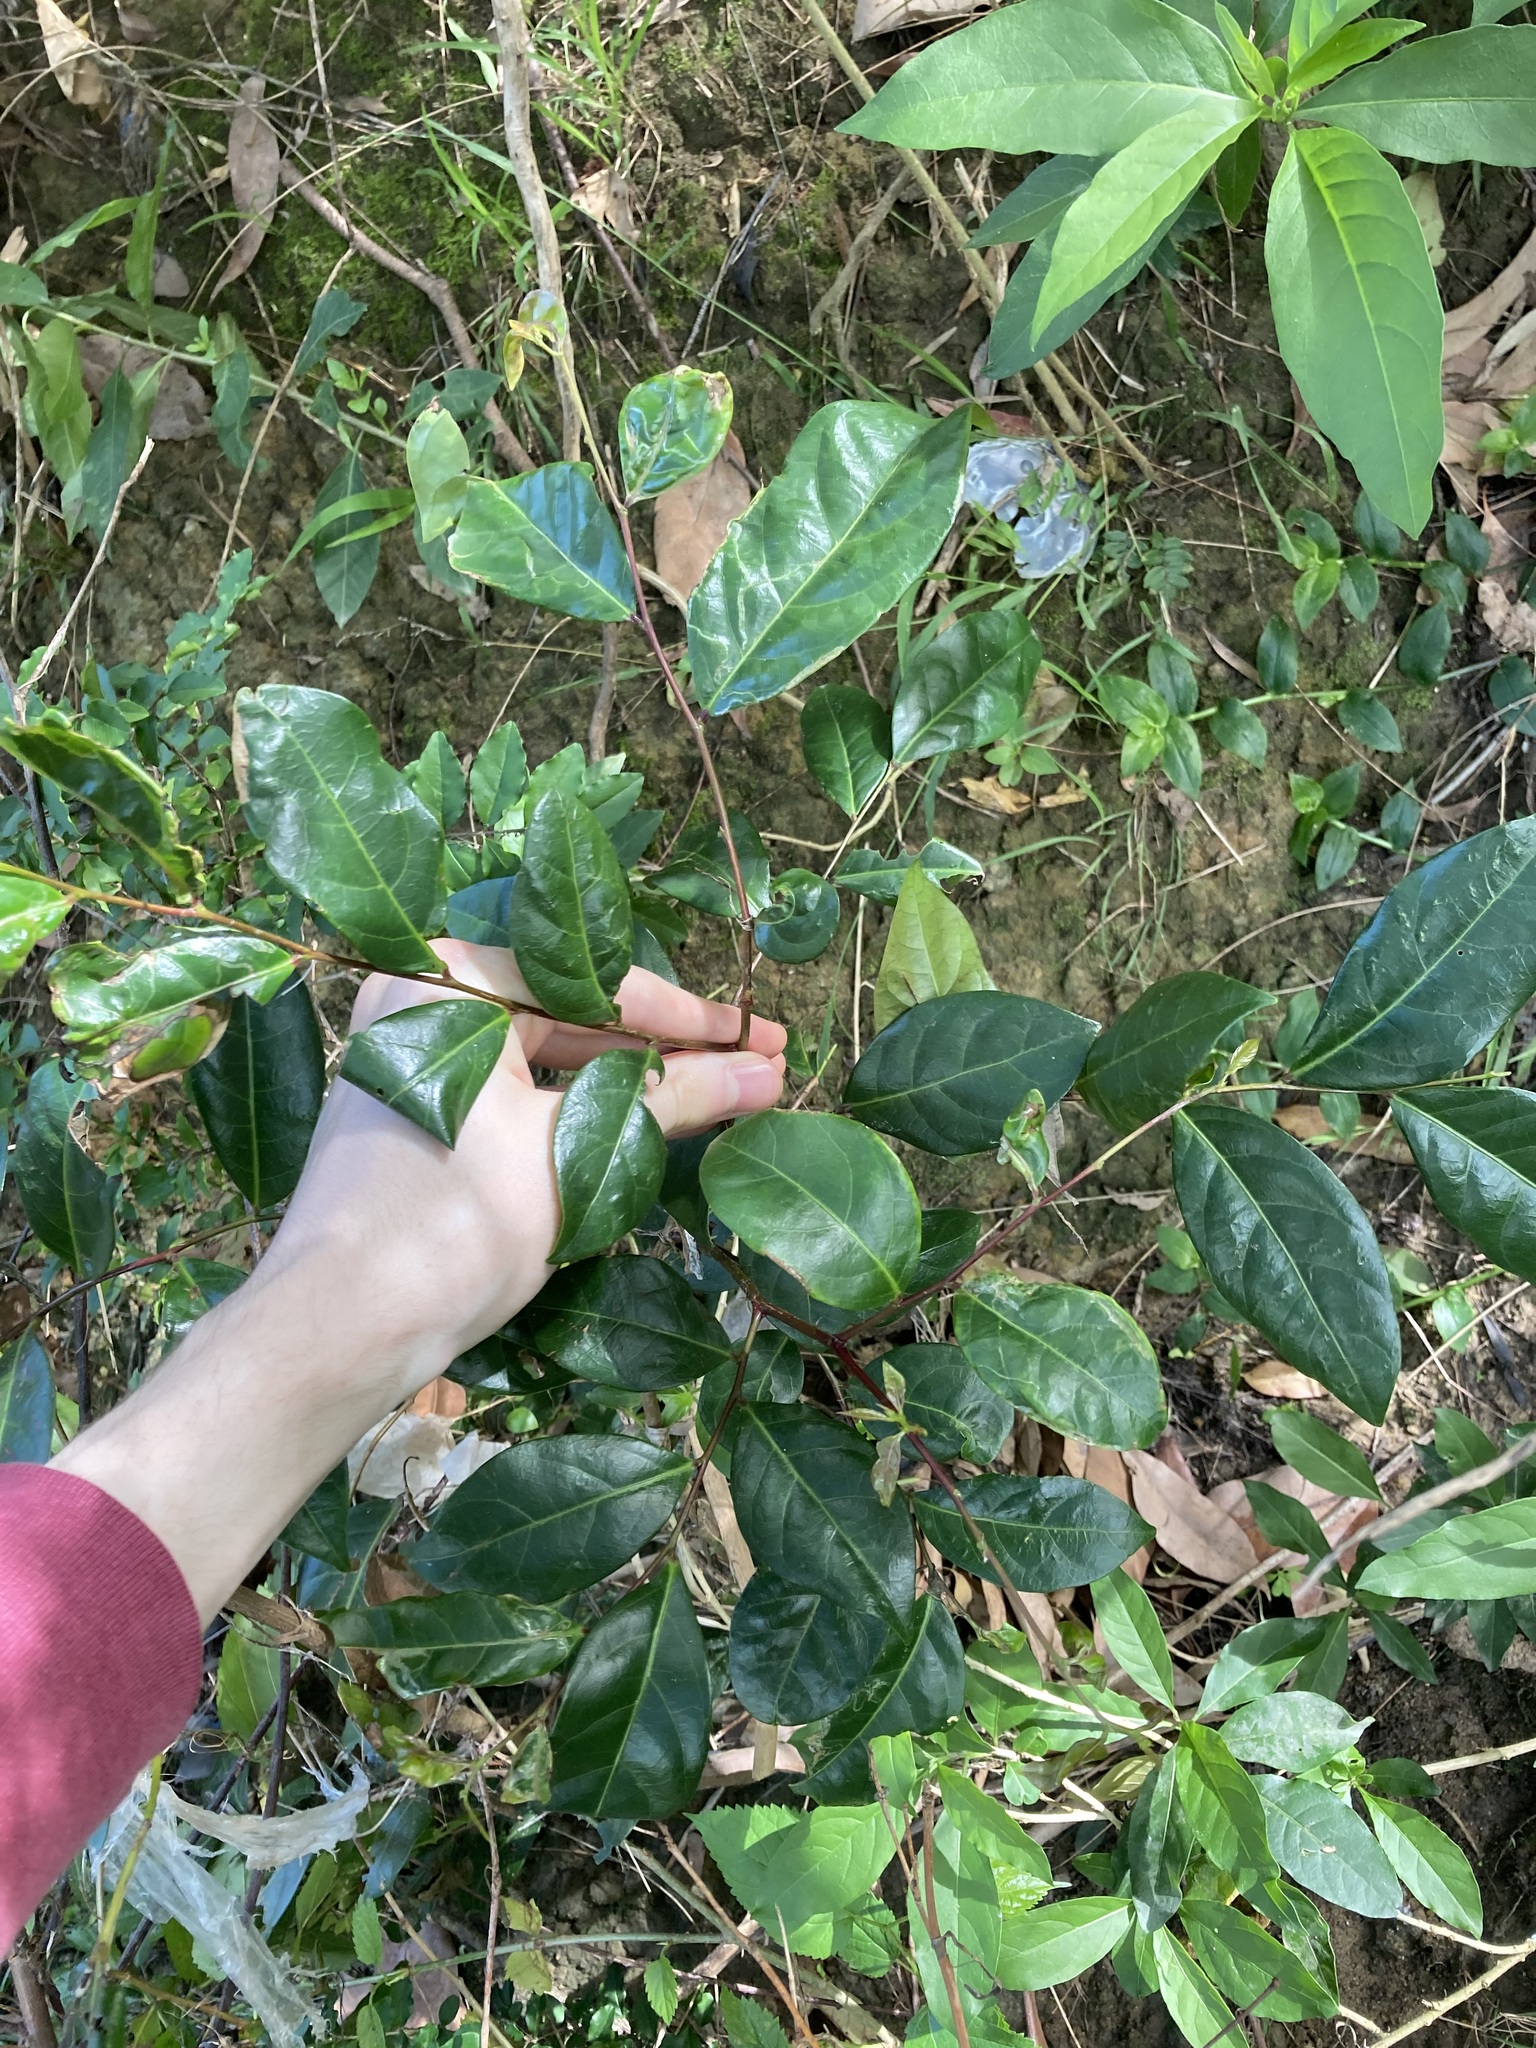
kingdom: Plantae
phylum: Tracheophyta
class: Magnoliopsida
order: Malpighiales
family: Phyllanthaceae
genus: Glochidion
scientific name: Glochidion ferdinandi
